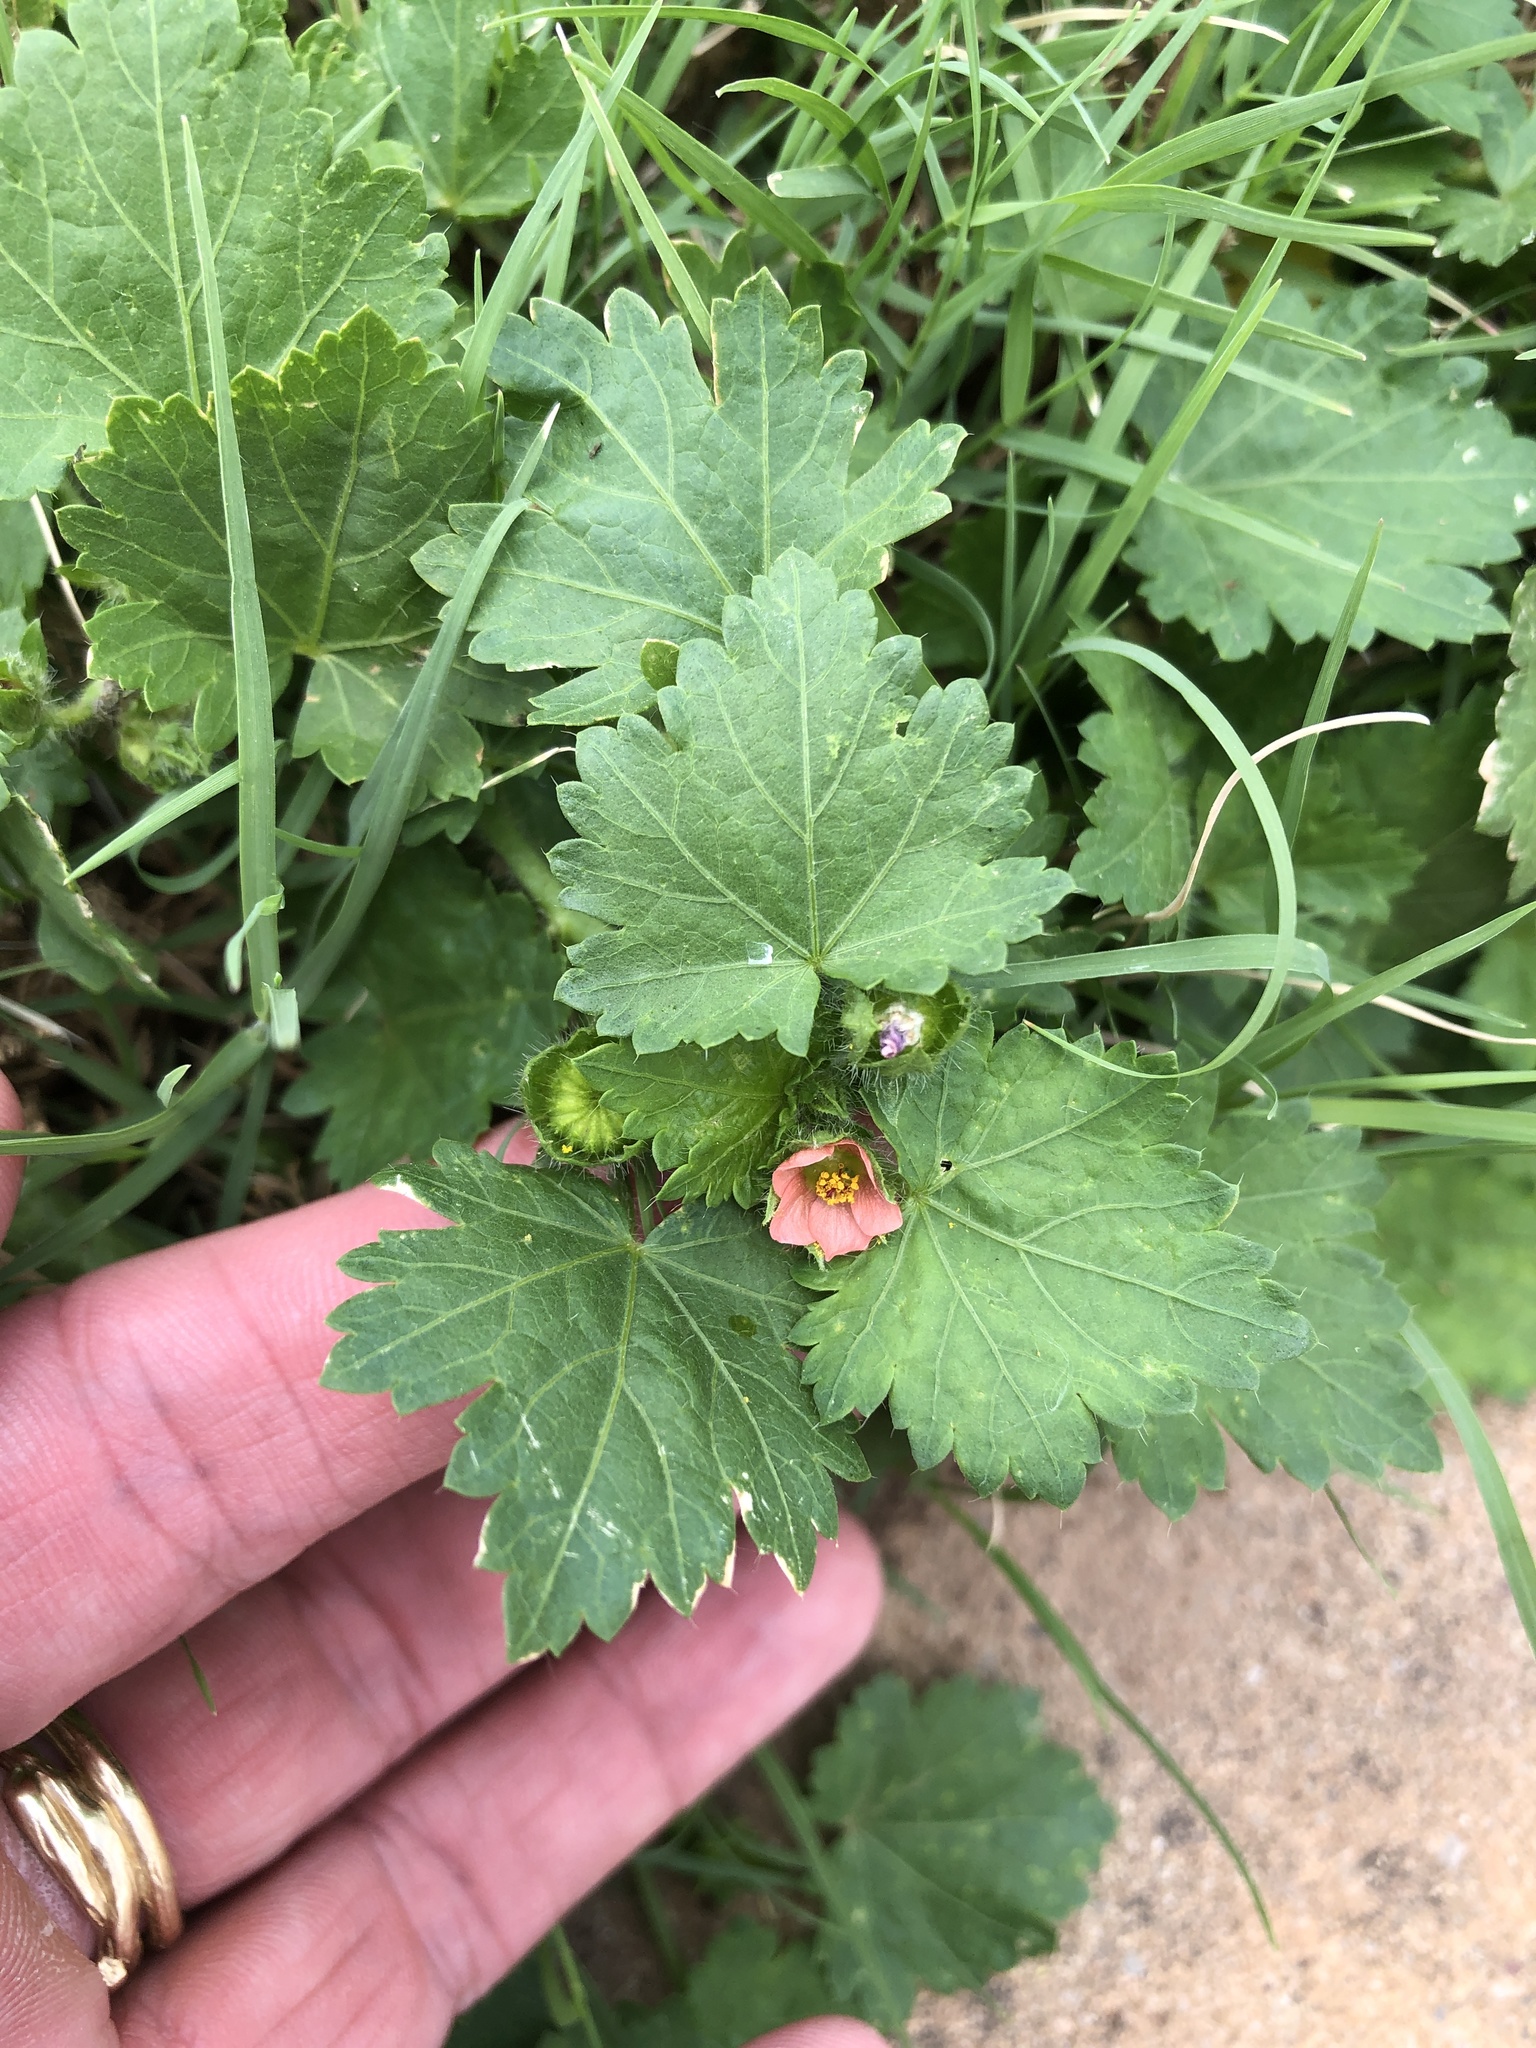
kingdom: Plantae
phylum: Tracheophyta
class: Magnoliopsida
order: Malvales
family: Malvaceae
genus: Modiola
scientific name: Modiola caroliniana
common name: Carolina bristlemallow
